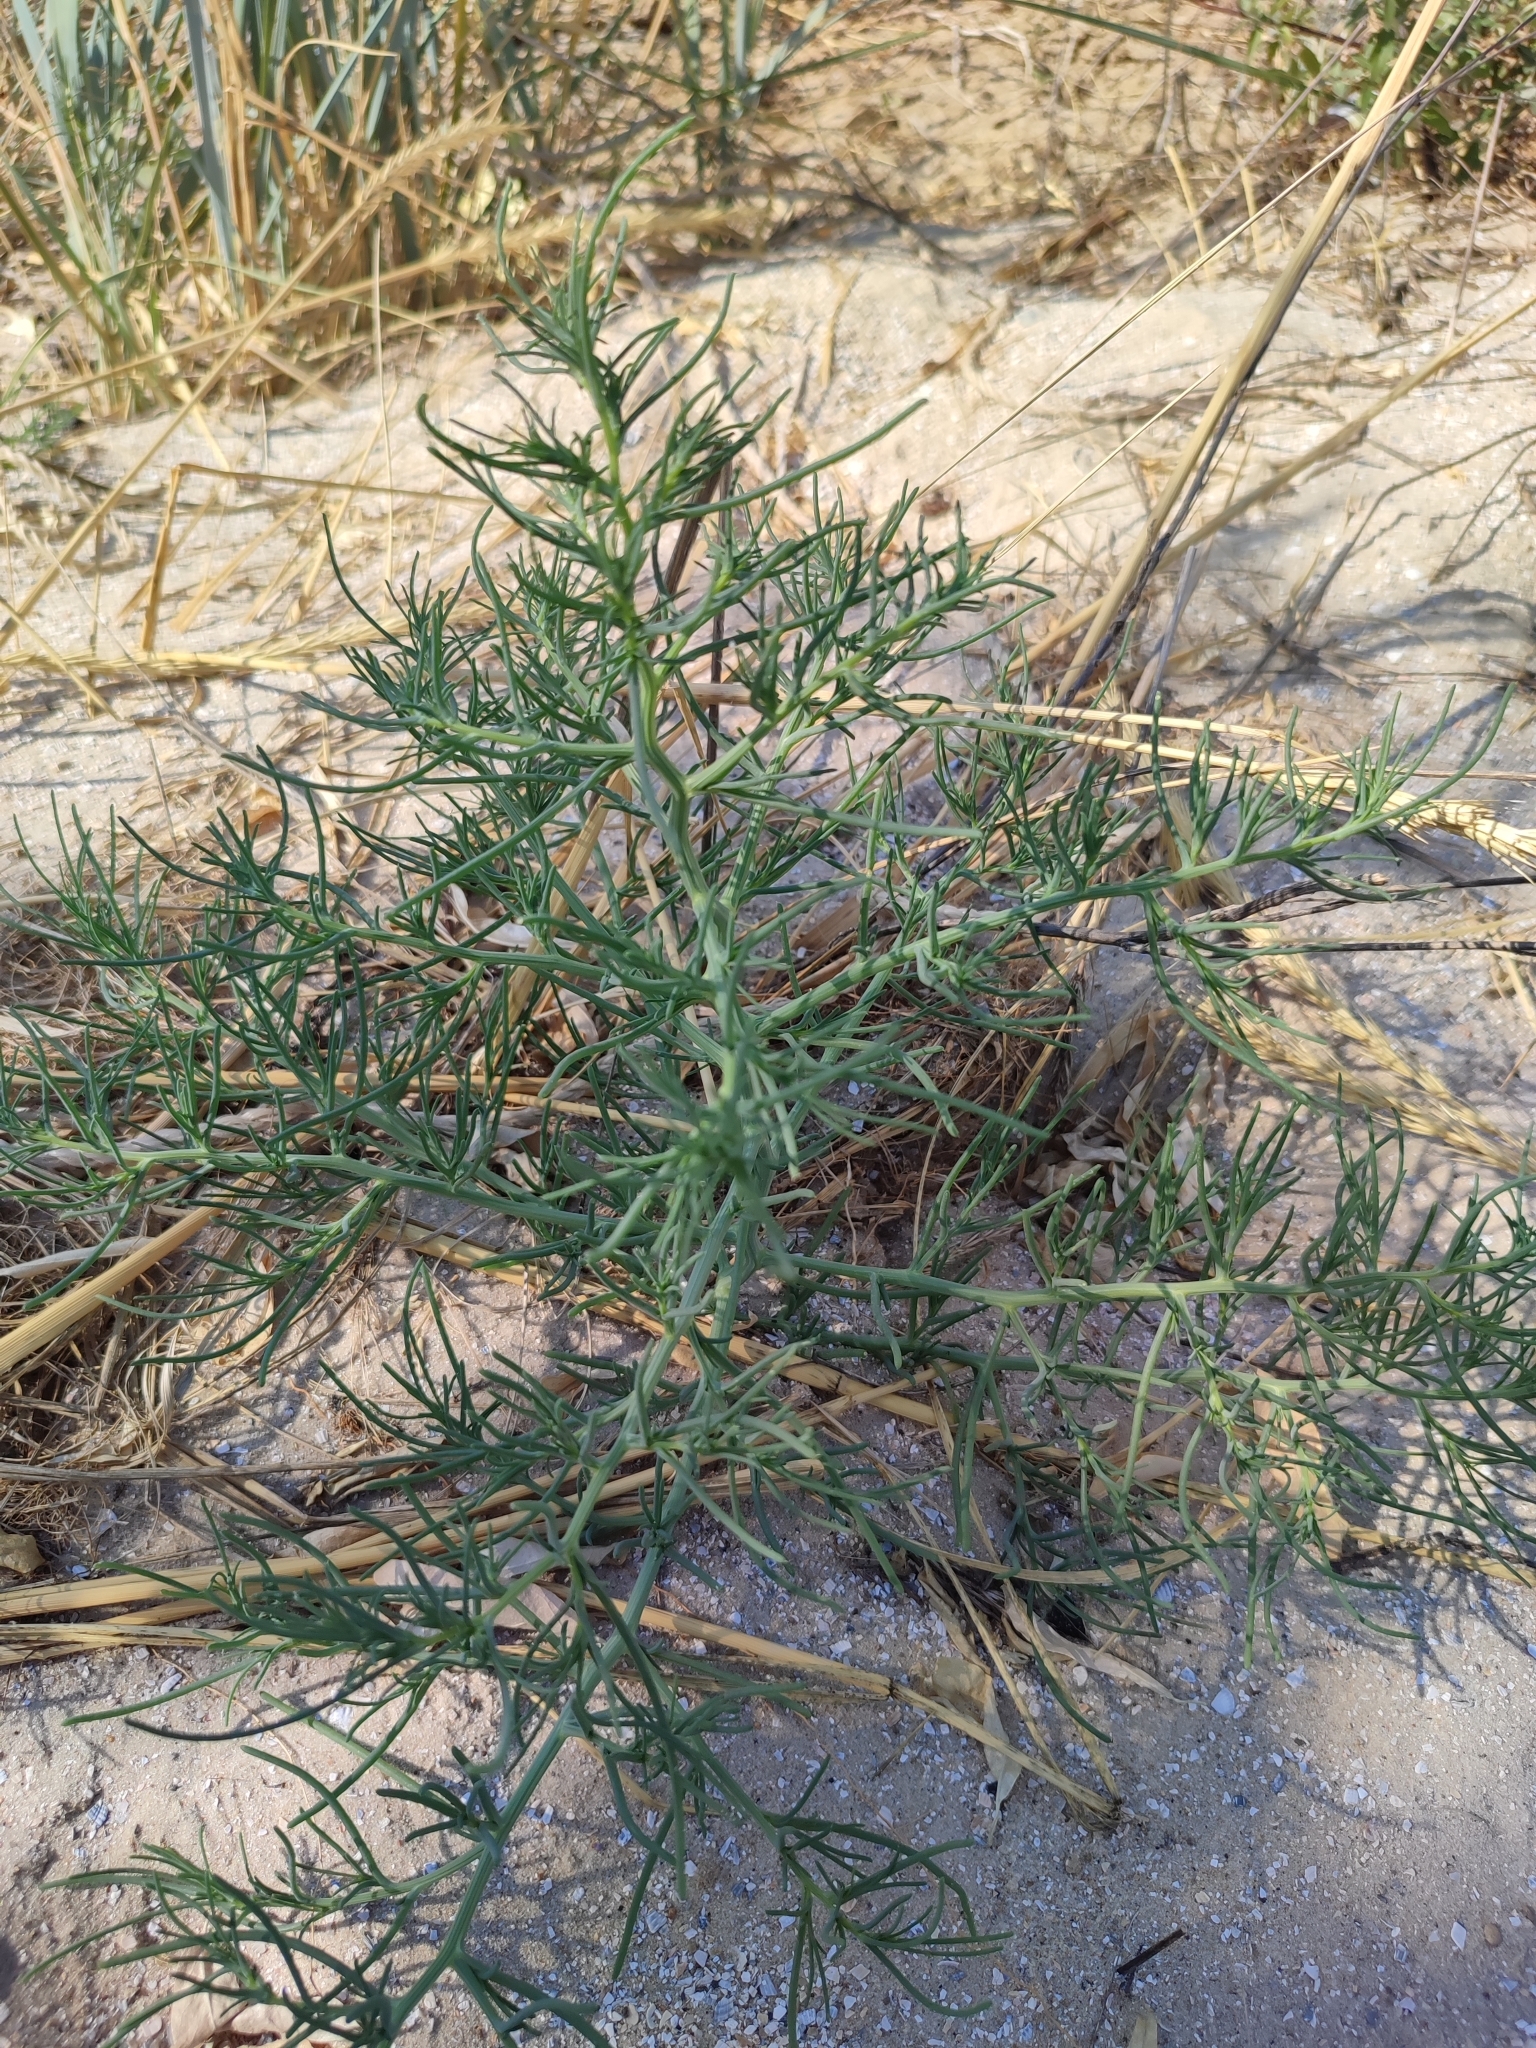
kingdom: Plantae
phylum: Tracheophyta
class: Magnoliopsida
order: Caryophyllales
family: Amaranthaceae
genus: Salsola
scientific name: Salsola squarrosa
